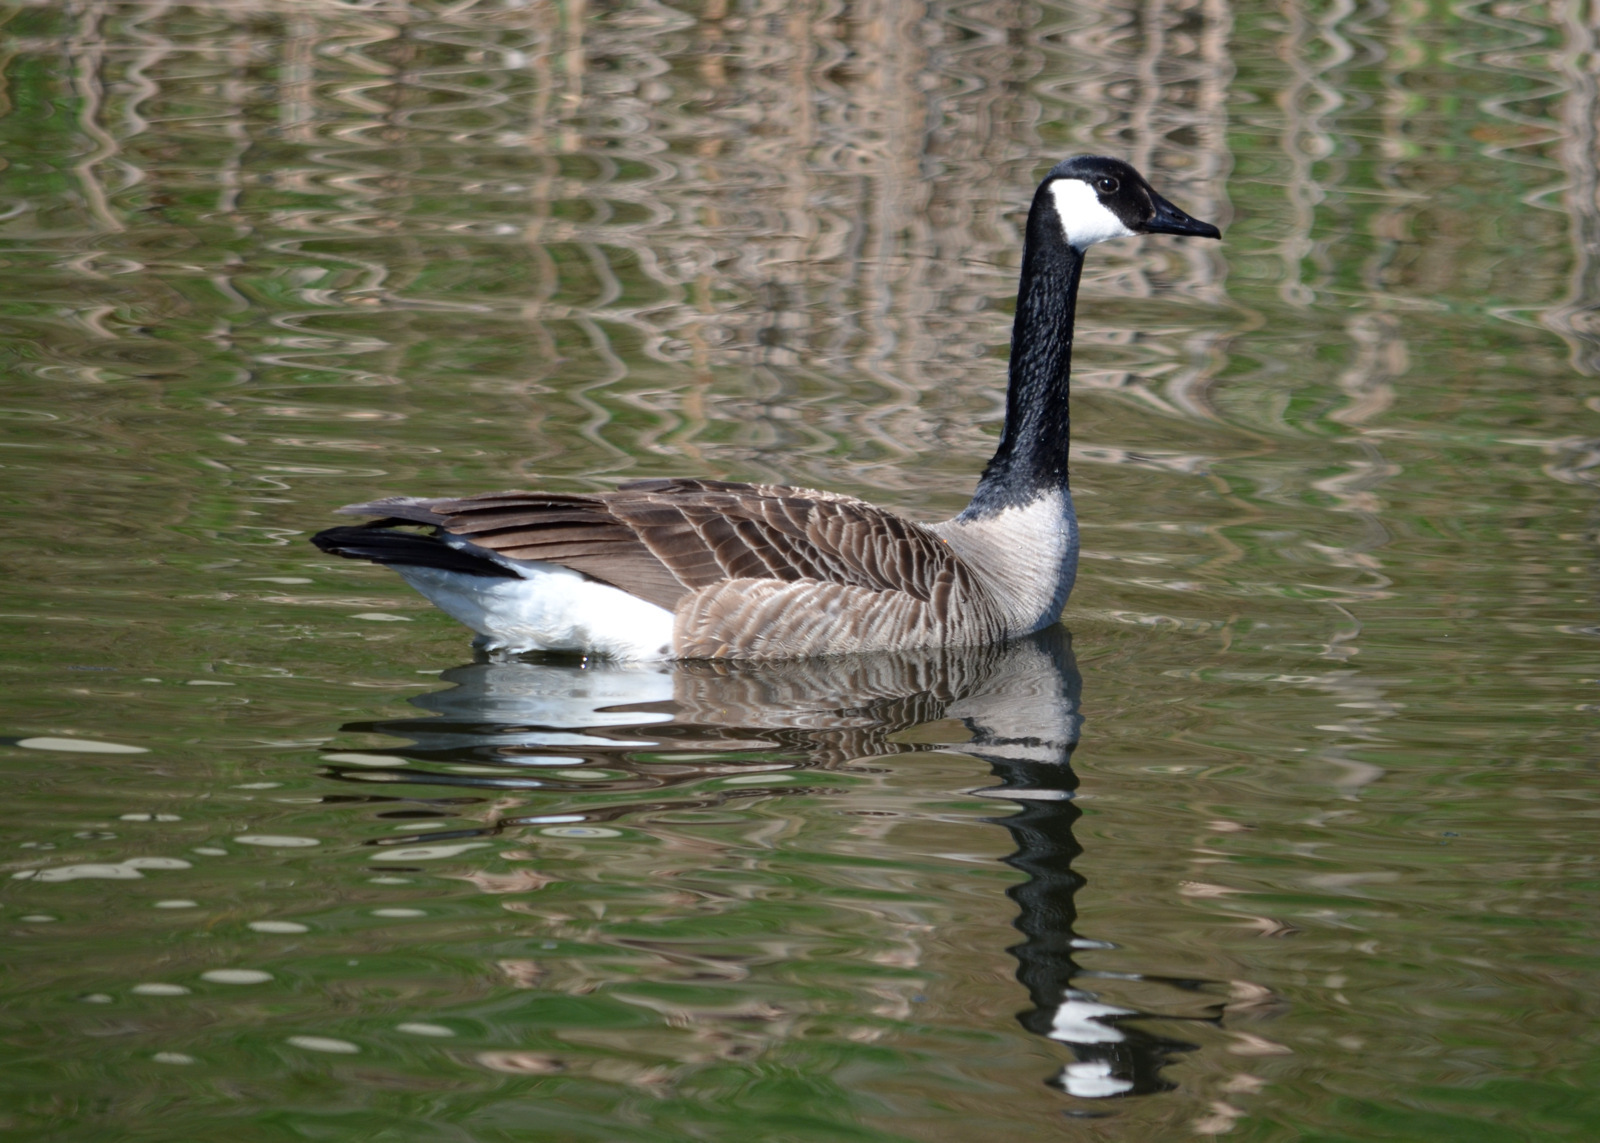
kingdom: Animalia
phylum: Chordata
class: Aves
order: Anseriformes
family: Anatidae
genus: Branta
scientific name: Branta canadensis
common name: Canada goose
